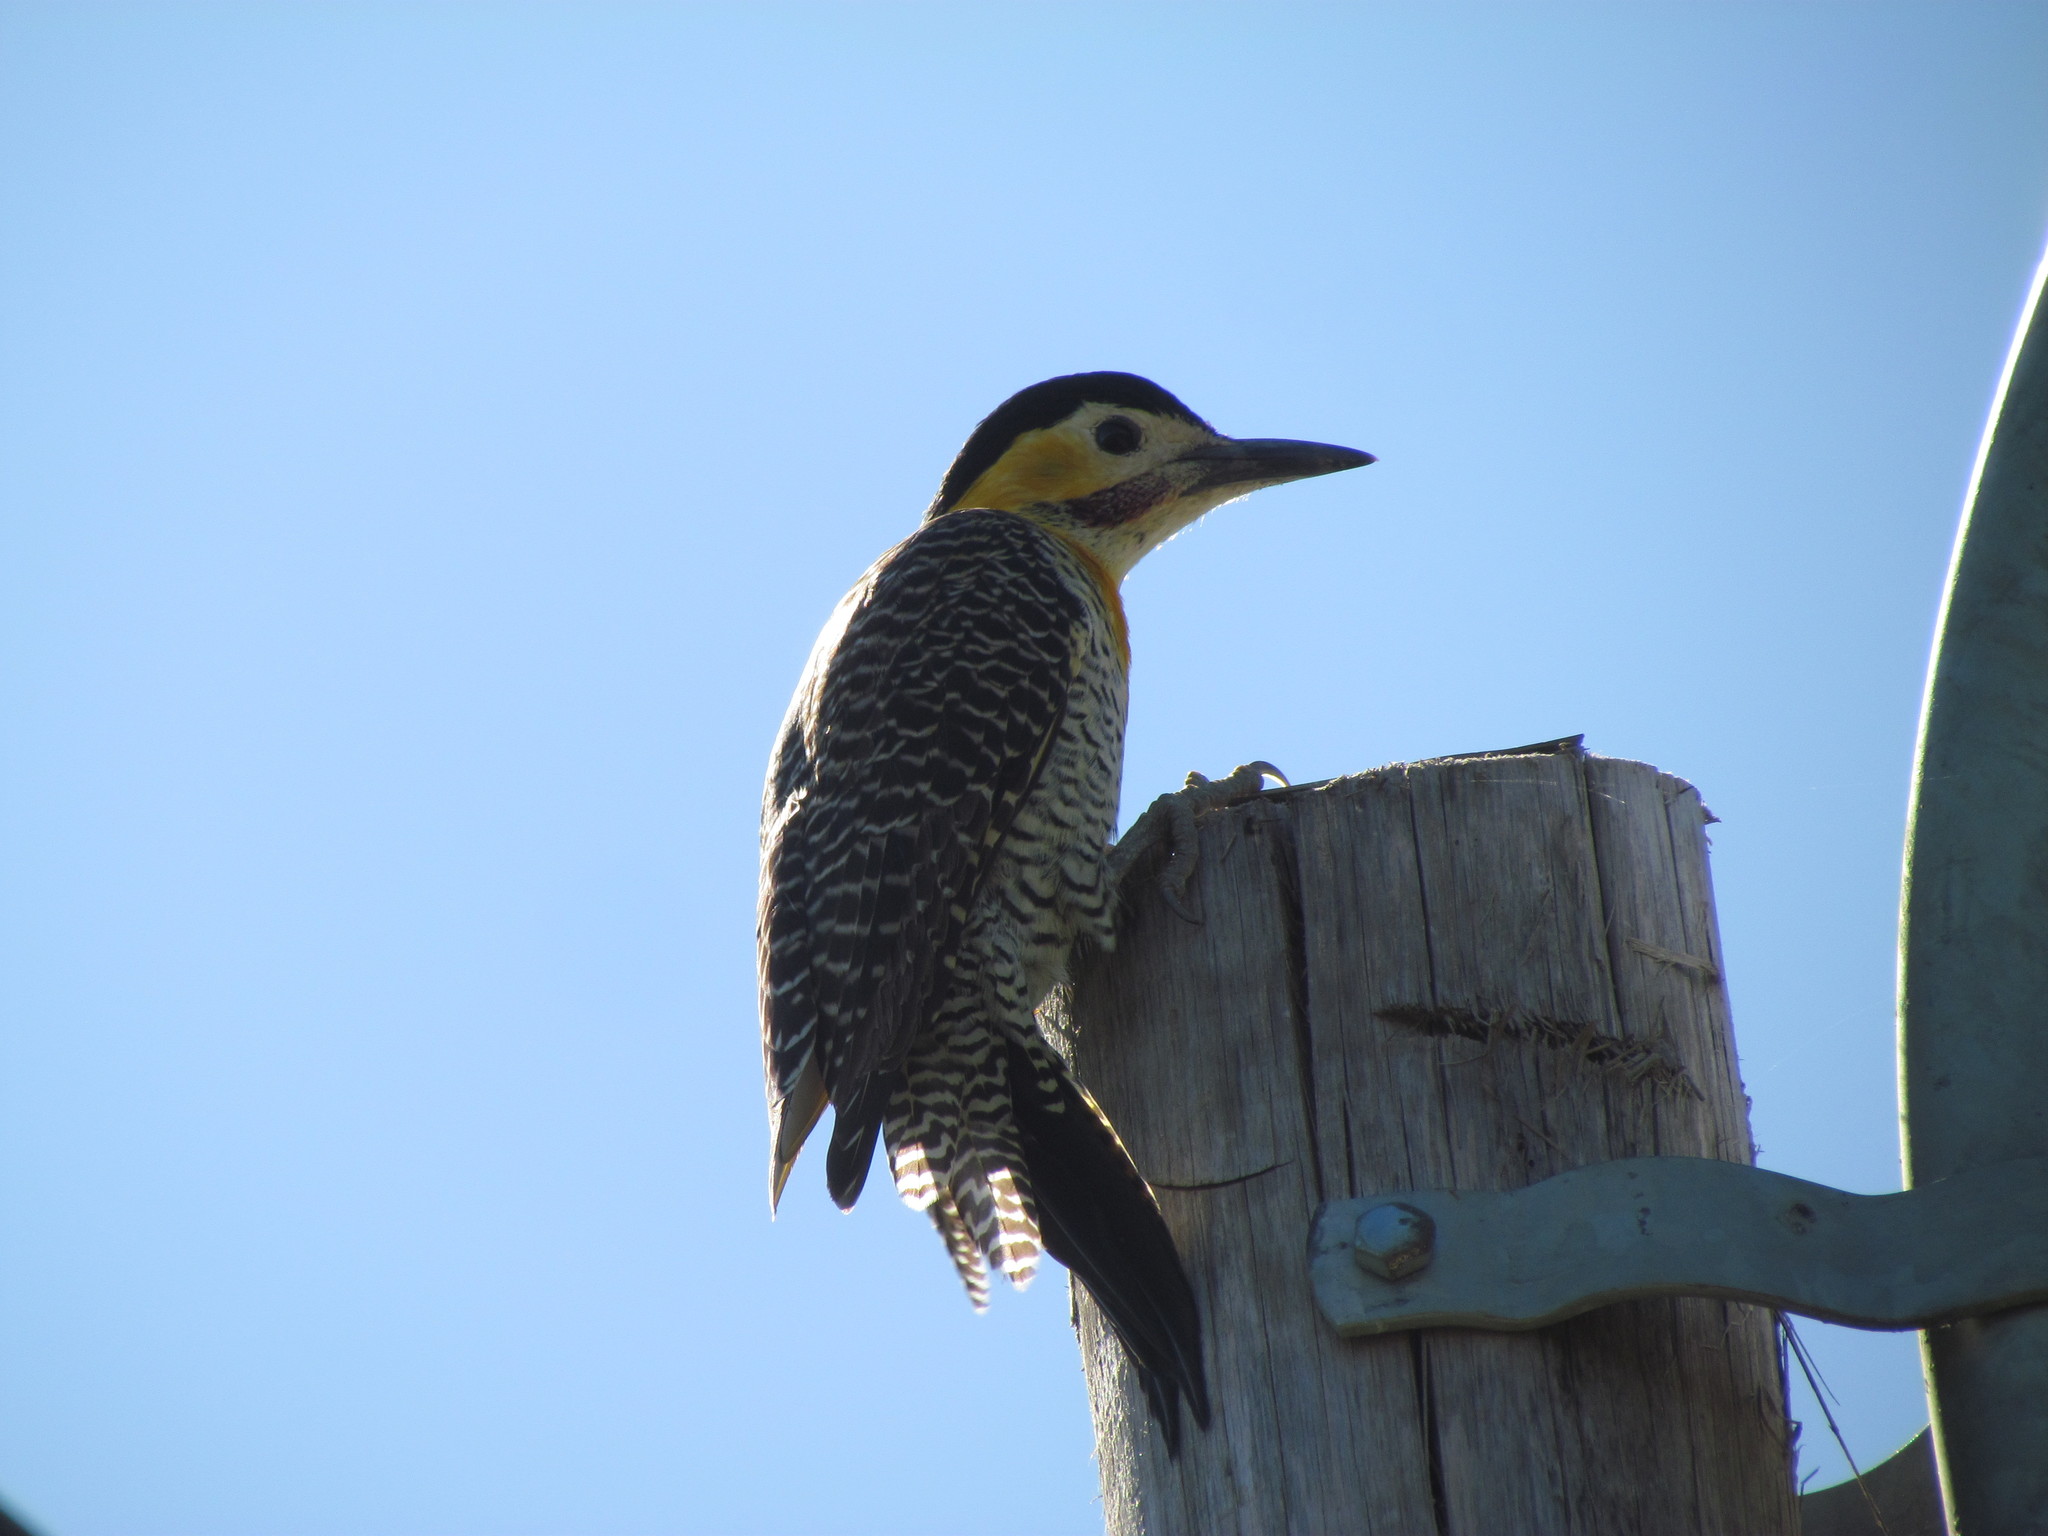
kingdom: Animalia
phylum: Chordata
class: Aves
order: Piciformes
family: Picidae
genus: Colaptes
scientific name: Colaptes campestris
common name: Campo flicker
